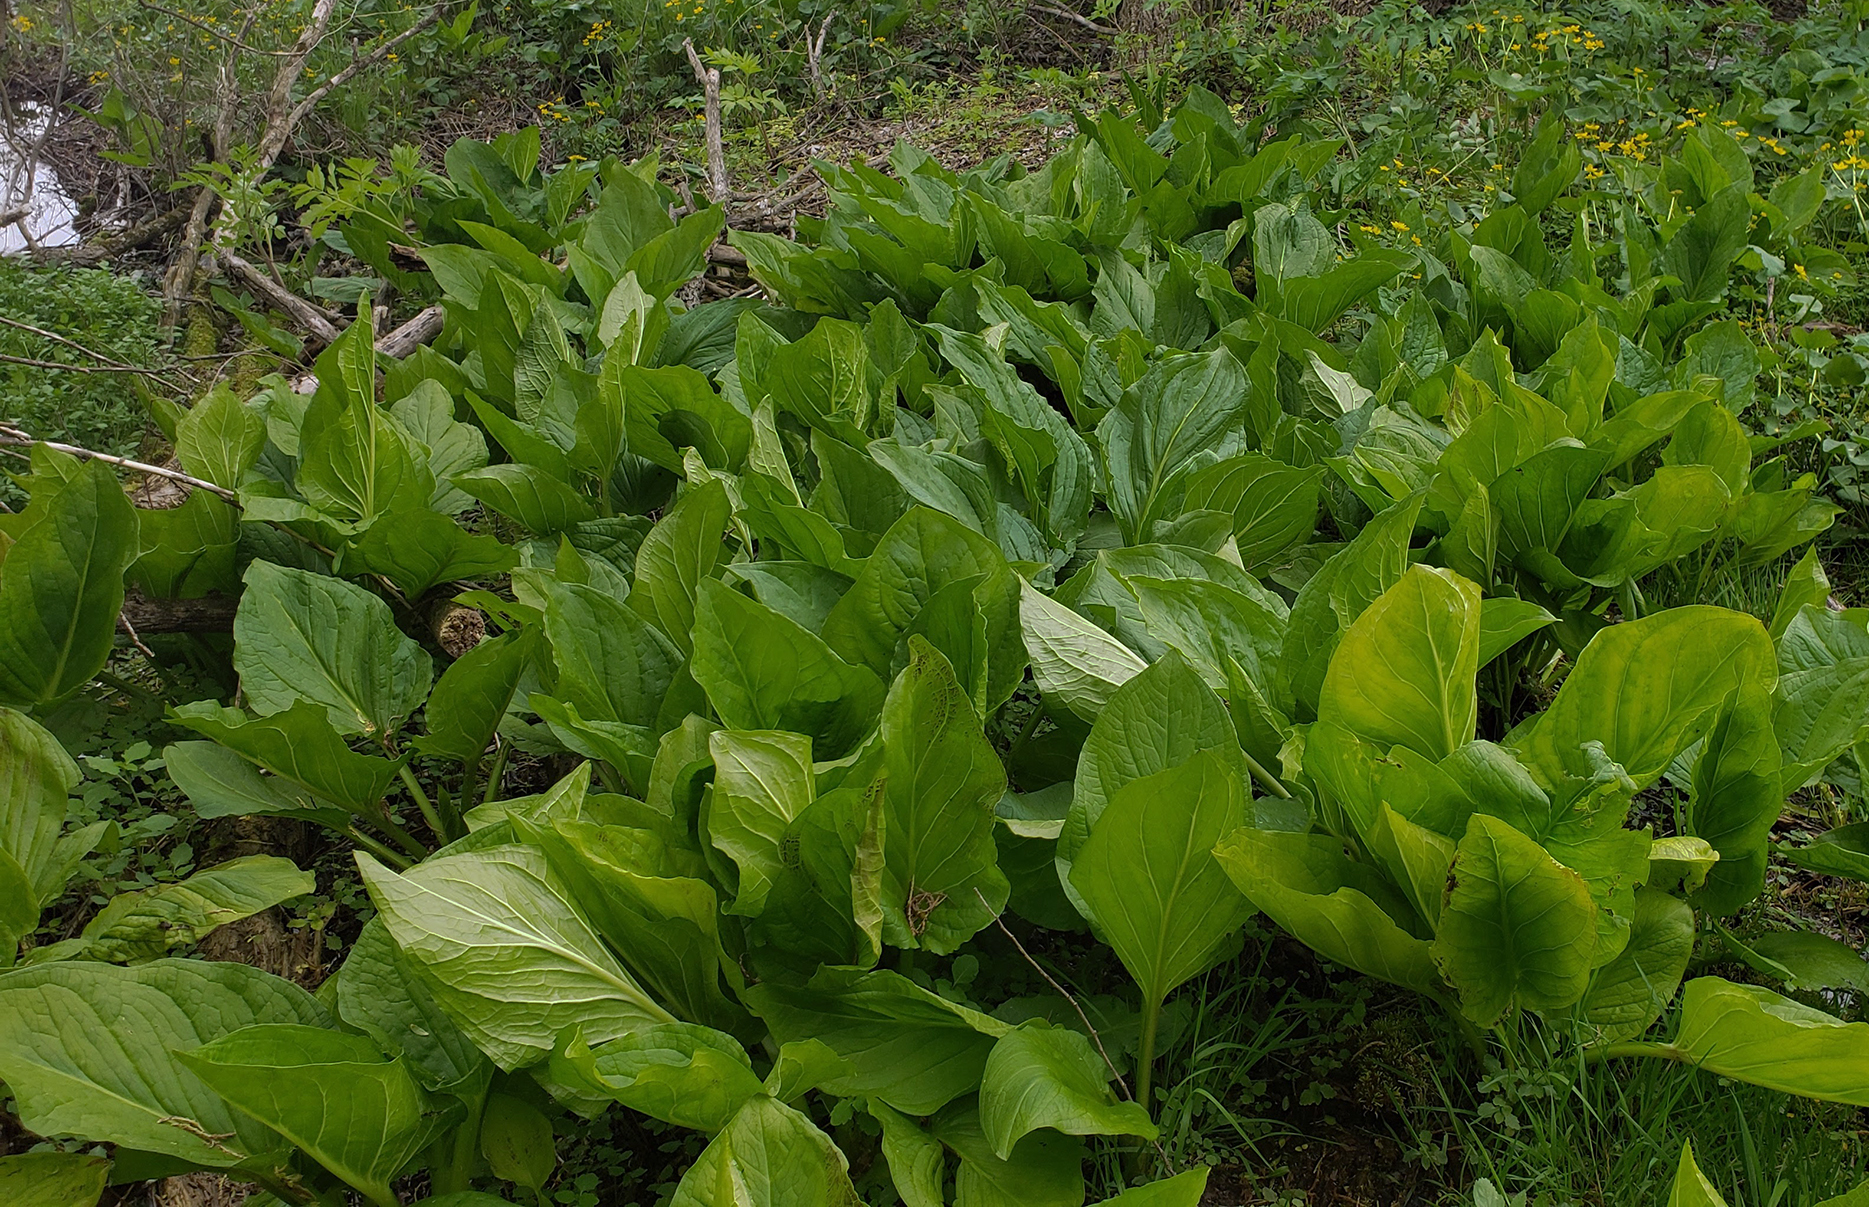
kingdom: Plantae
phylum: Tracheophyta
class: Liliopsida
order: Alismatales
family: Araceae
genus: Symplocarpus
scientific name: Symplocarpus foetidus
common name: Eastern skunk cabbage
